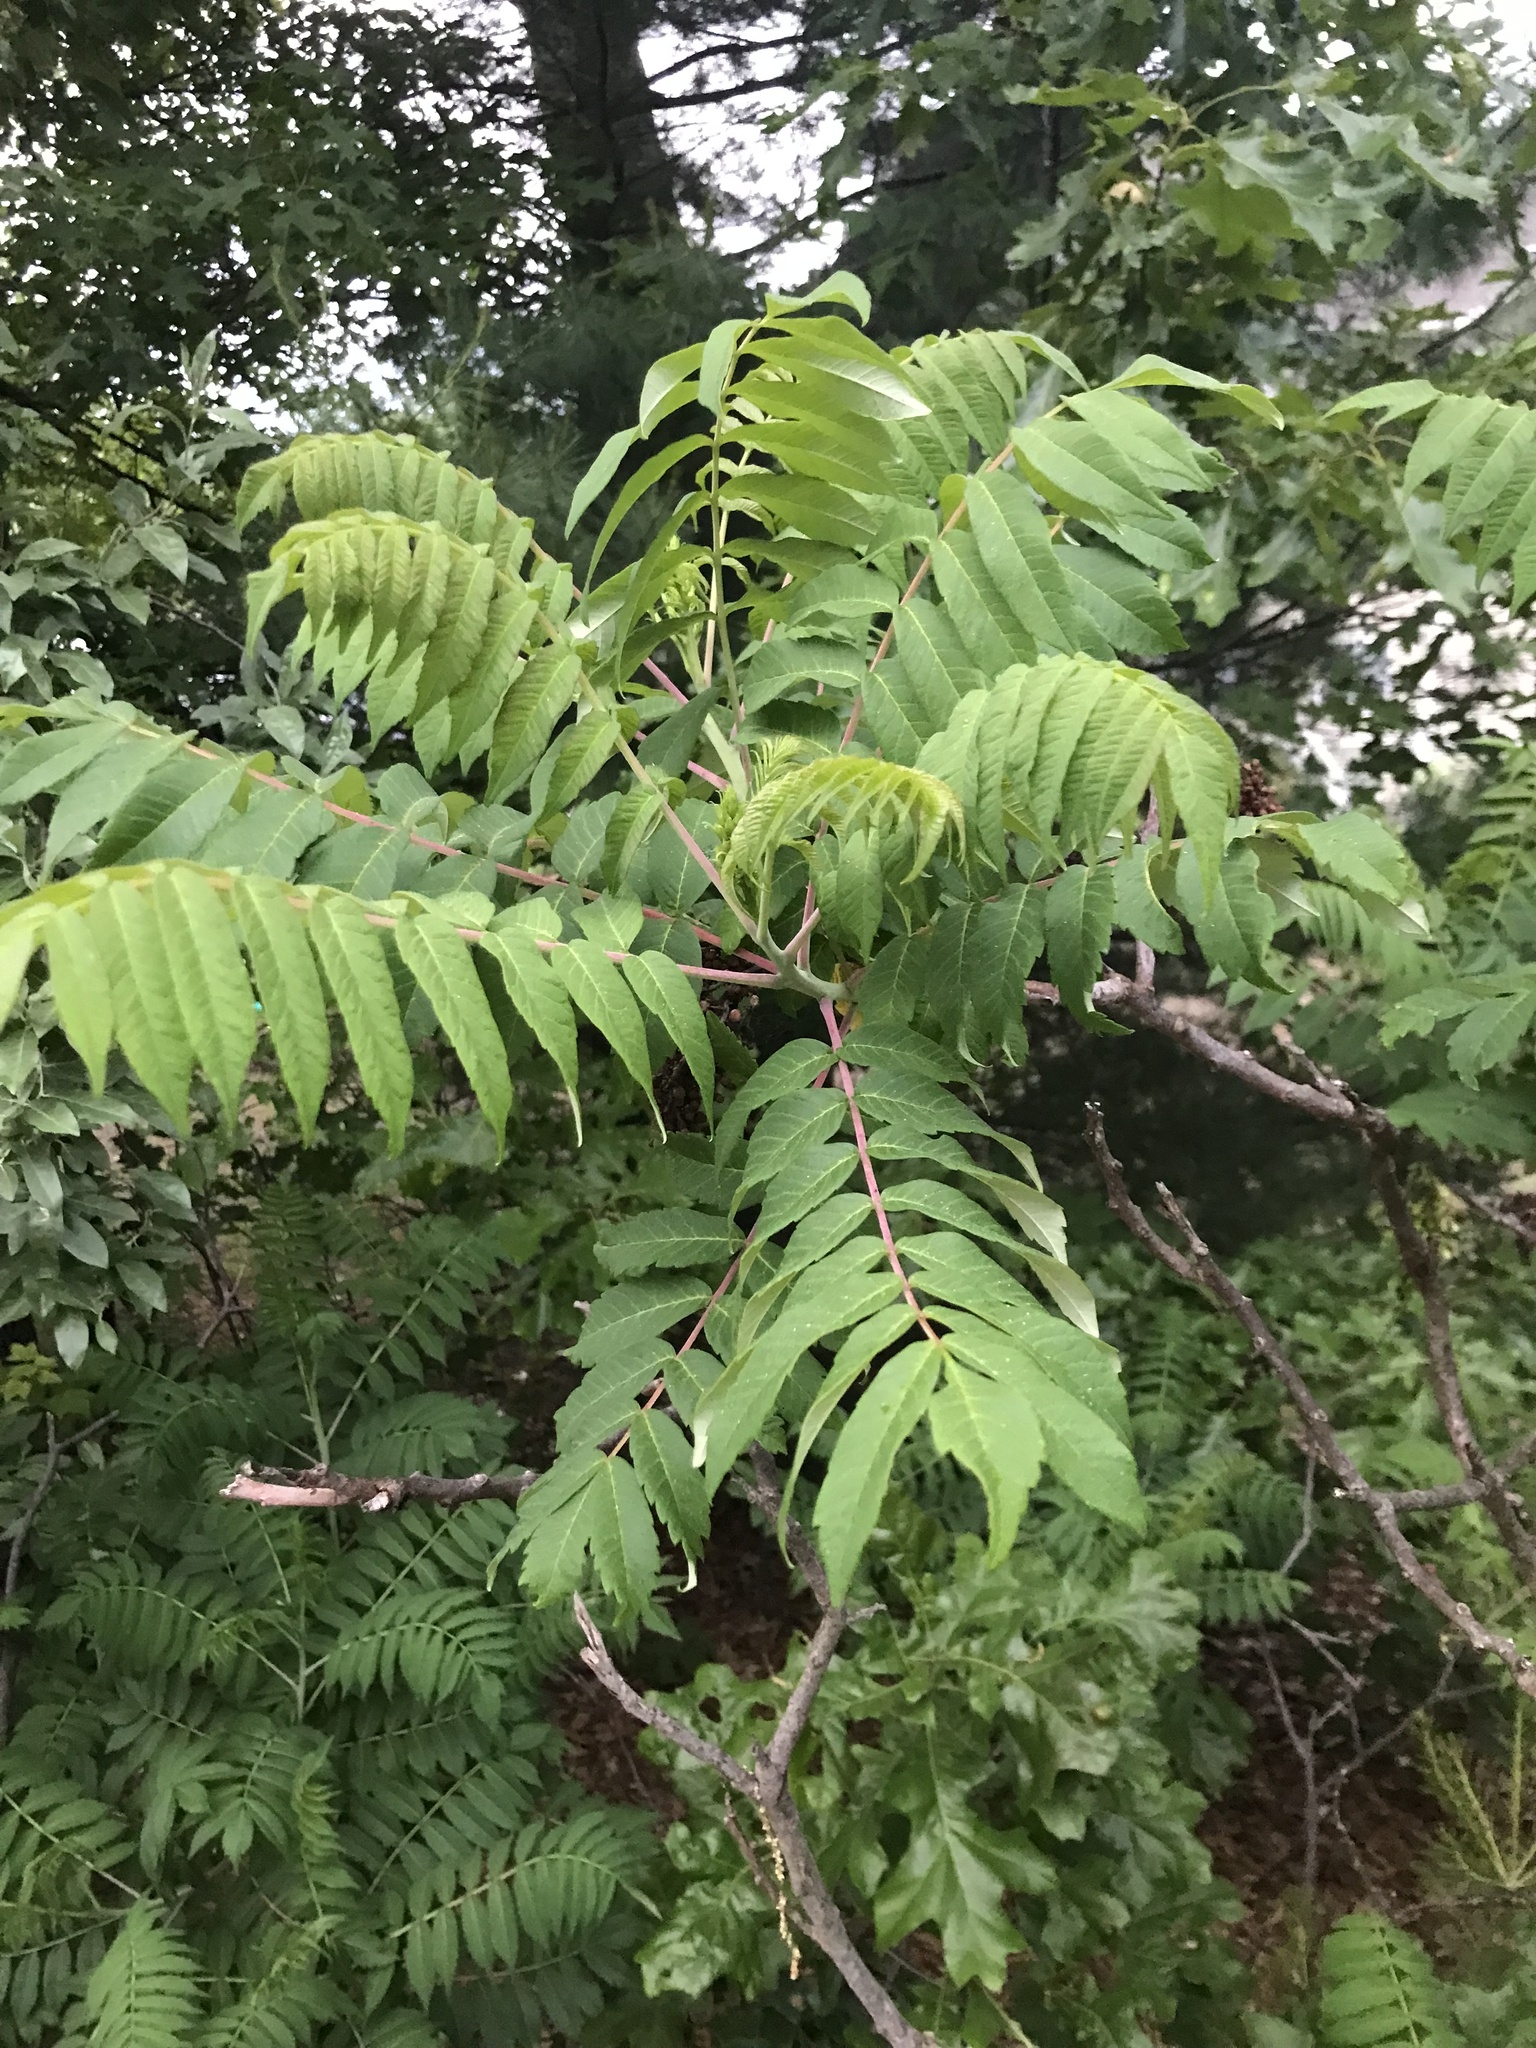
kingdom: Plantae
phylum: Tracheophyta
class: Magnoliopsida
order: Sapindales
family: Anacardiaceae
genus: Rhus
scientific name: Rhus glabra
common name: Scarlet sumac
